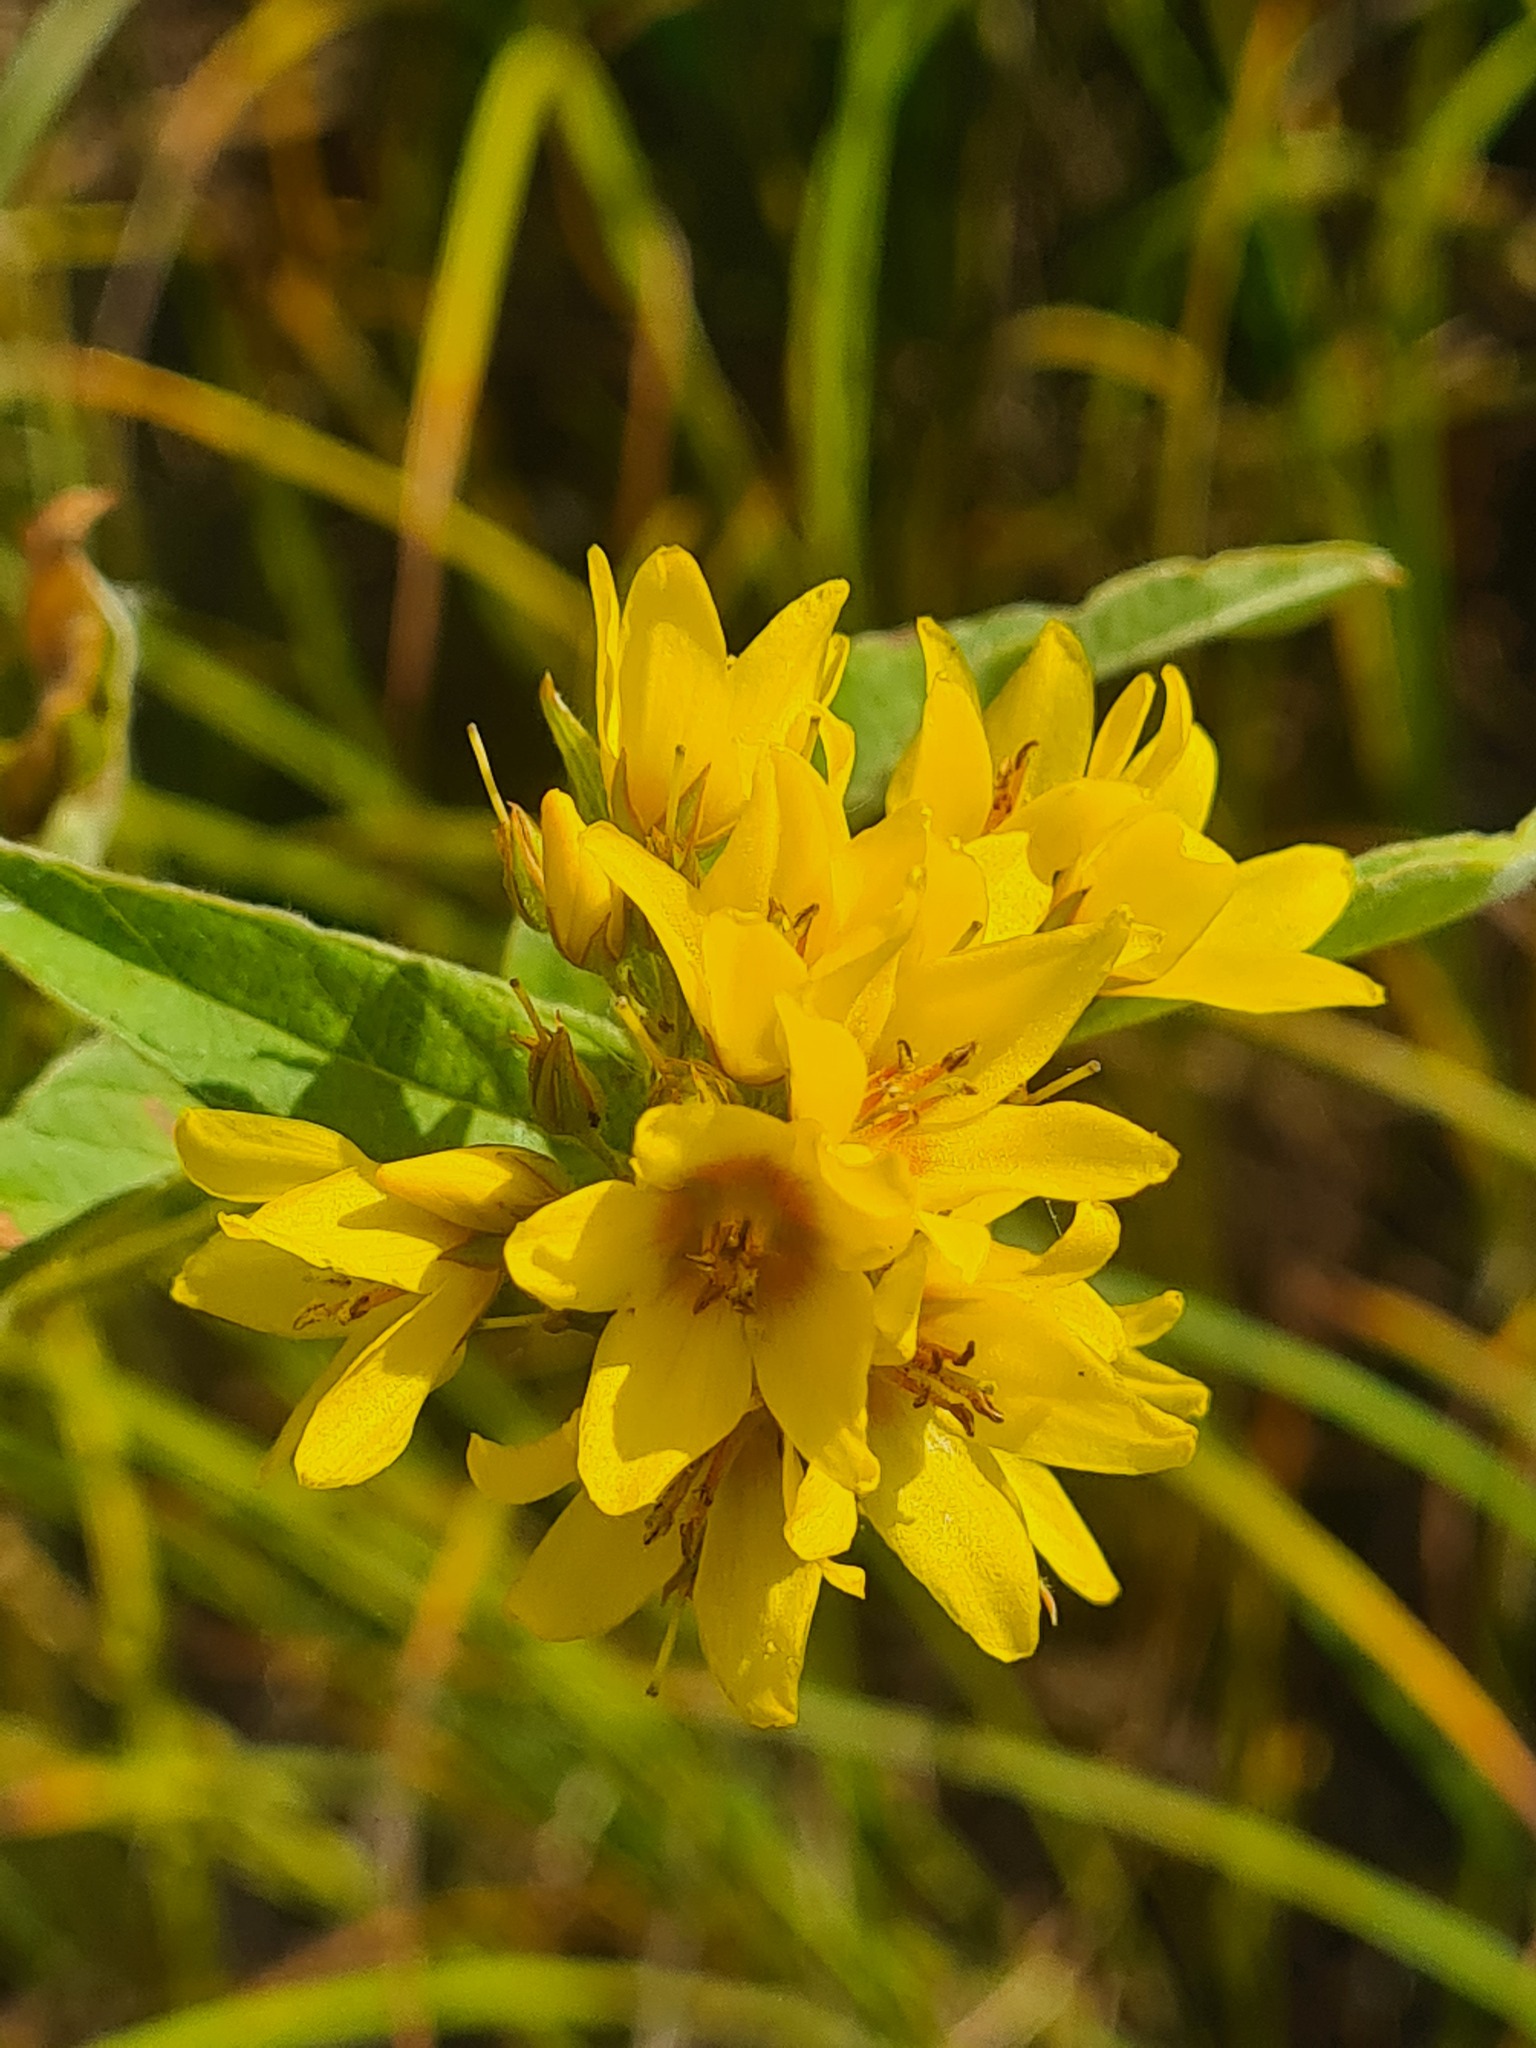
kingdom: Plantae
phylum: Tracheophyta
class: Magnoliopsida
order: Ericales
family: Primulaceae
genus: Lysimachia
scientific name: Lysimachia vulgaris
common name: Yellow loosestrife
